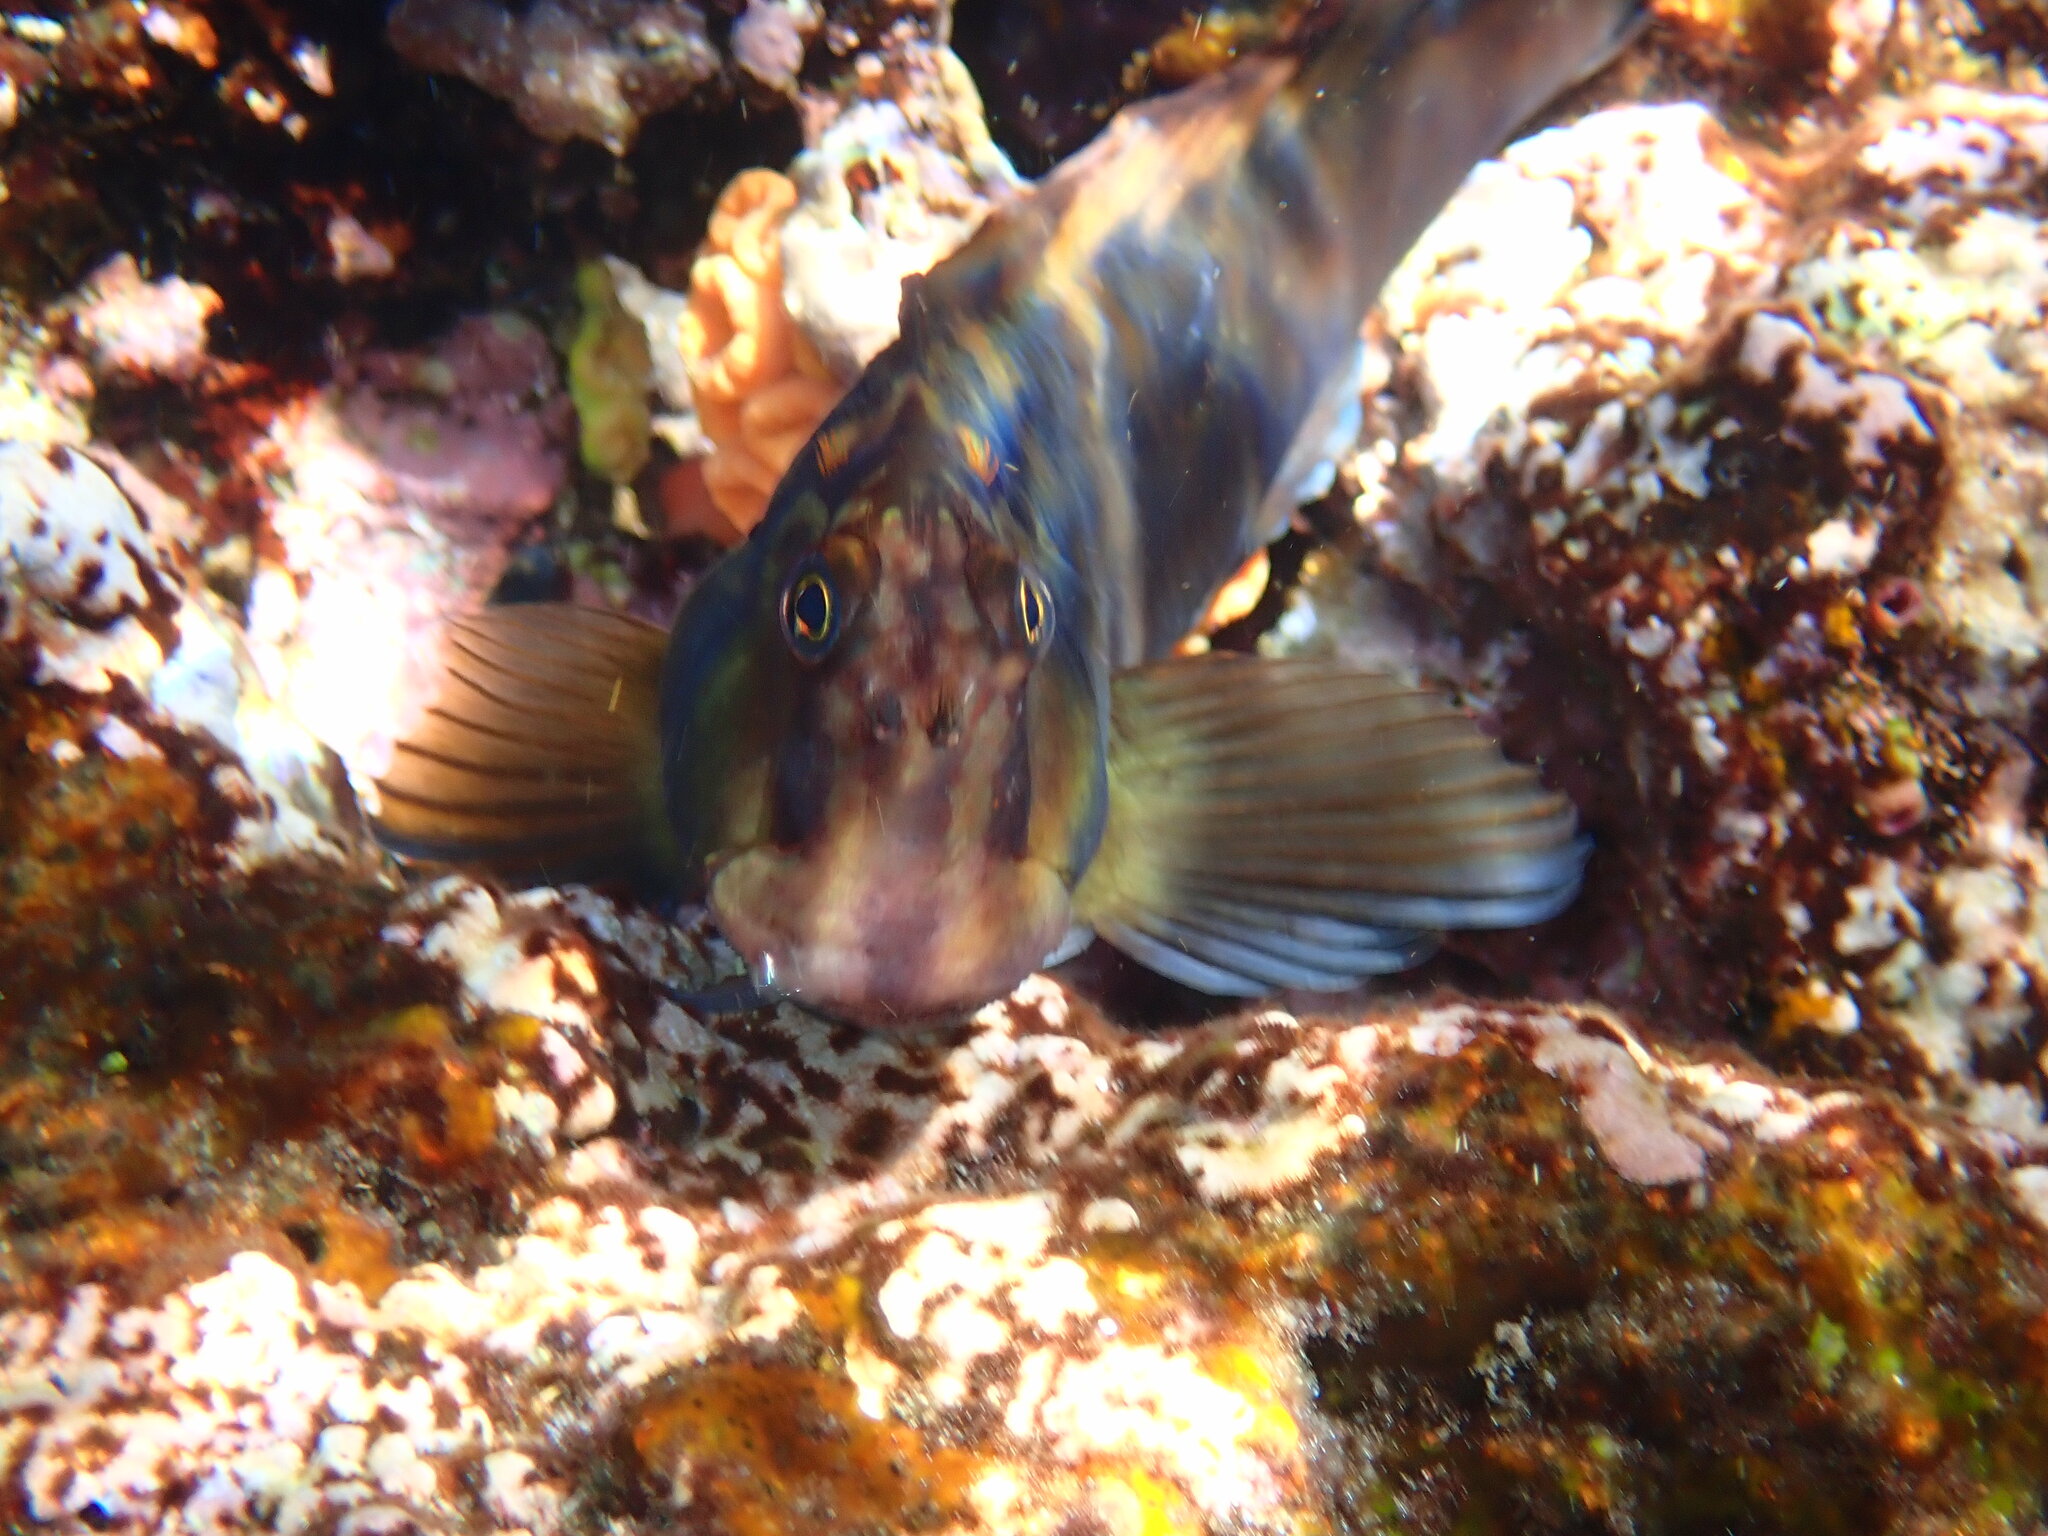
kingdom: Animalia
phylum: Chordata
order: Perciformes
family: Blenniidae
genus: Ophioblennius
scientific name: Ophioblennius steindachneri
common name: Panamic fanged blenny
